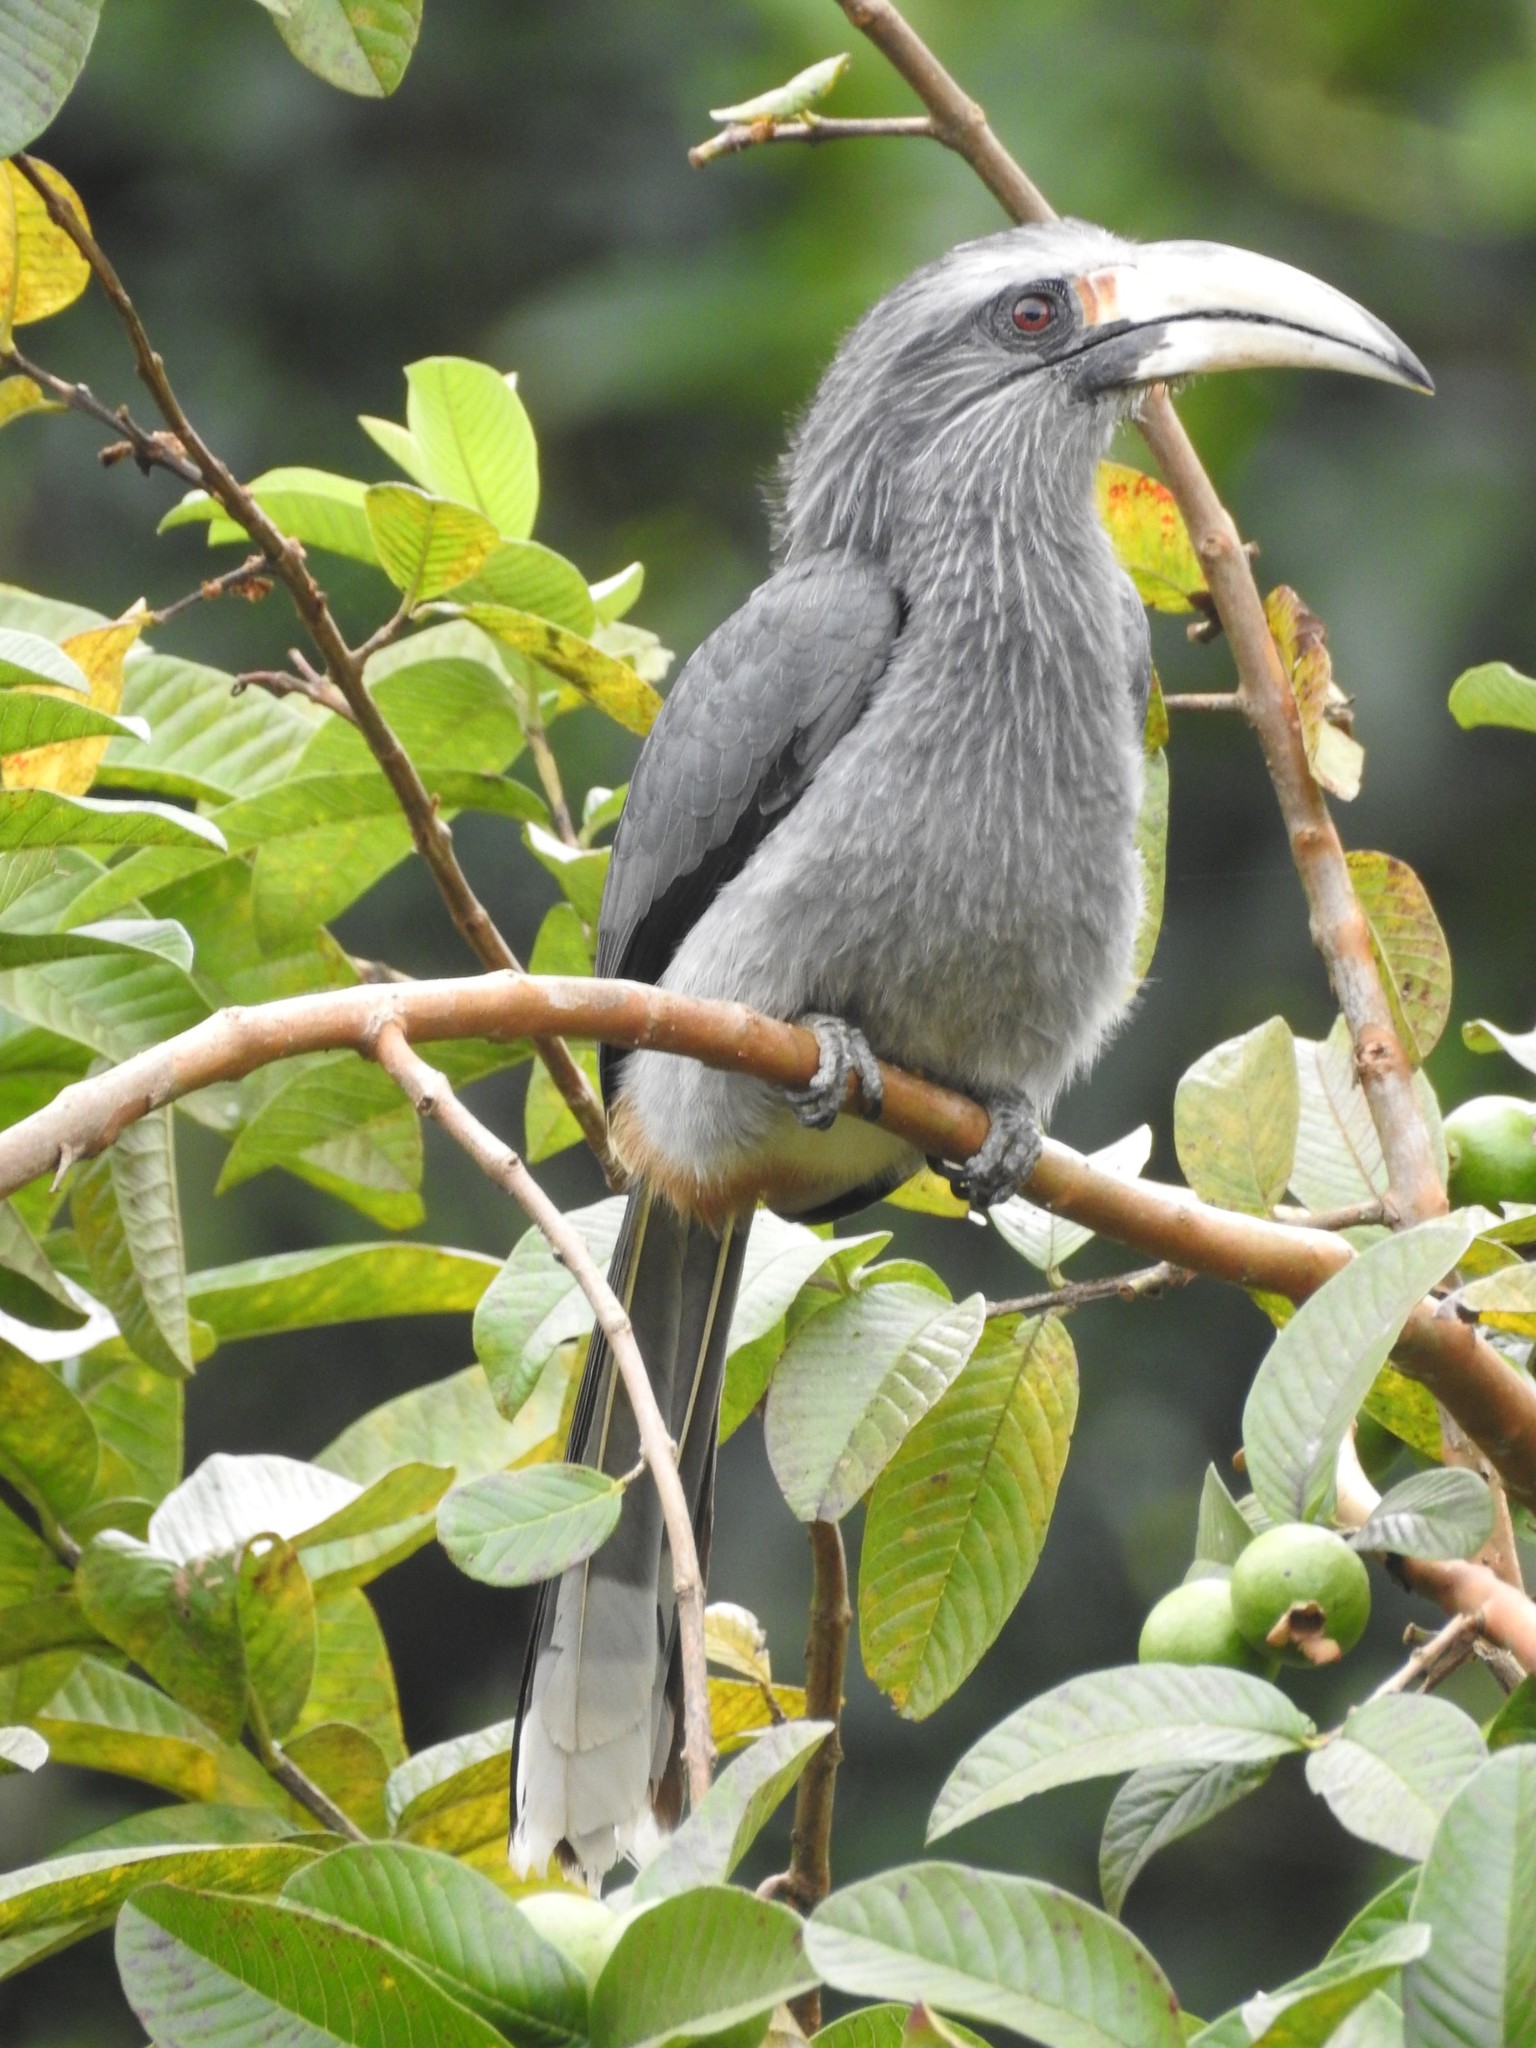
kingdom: Animalia
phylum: Chordata
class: Aves
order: Bucerotiformes
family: Bucerotidae
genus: Ocyceros
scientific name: Ocyceros griseus
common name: Malabar grey hornbill
